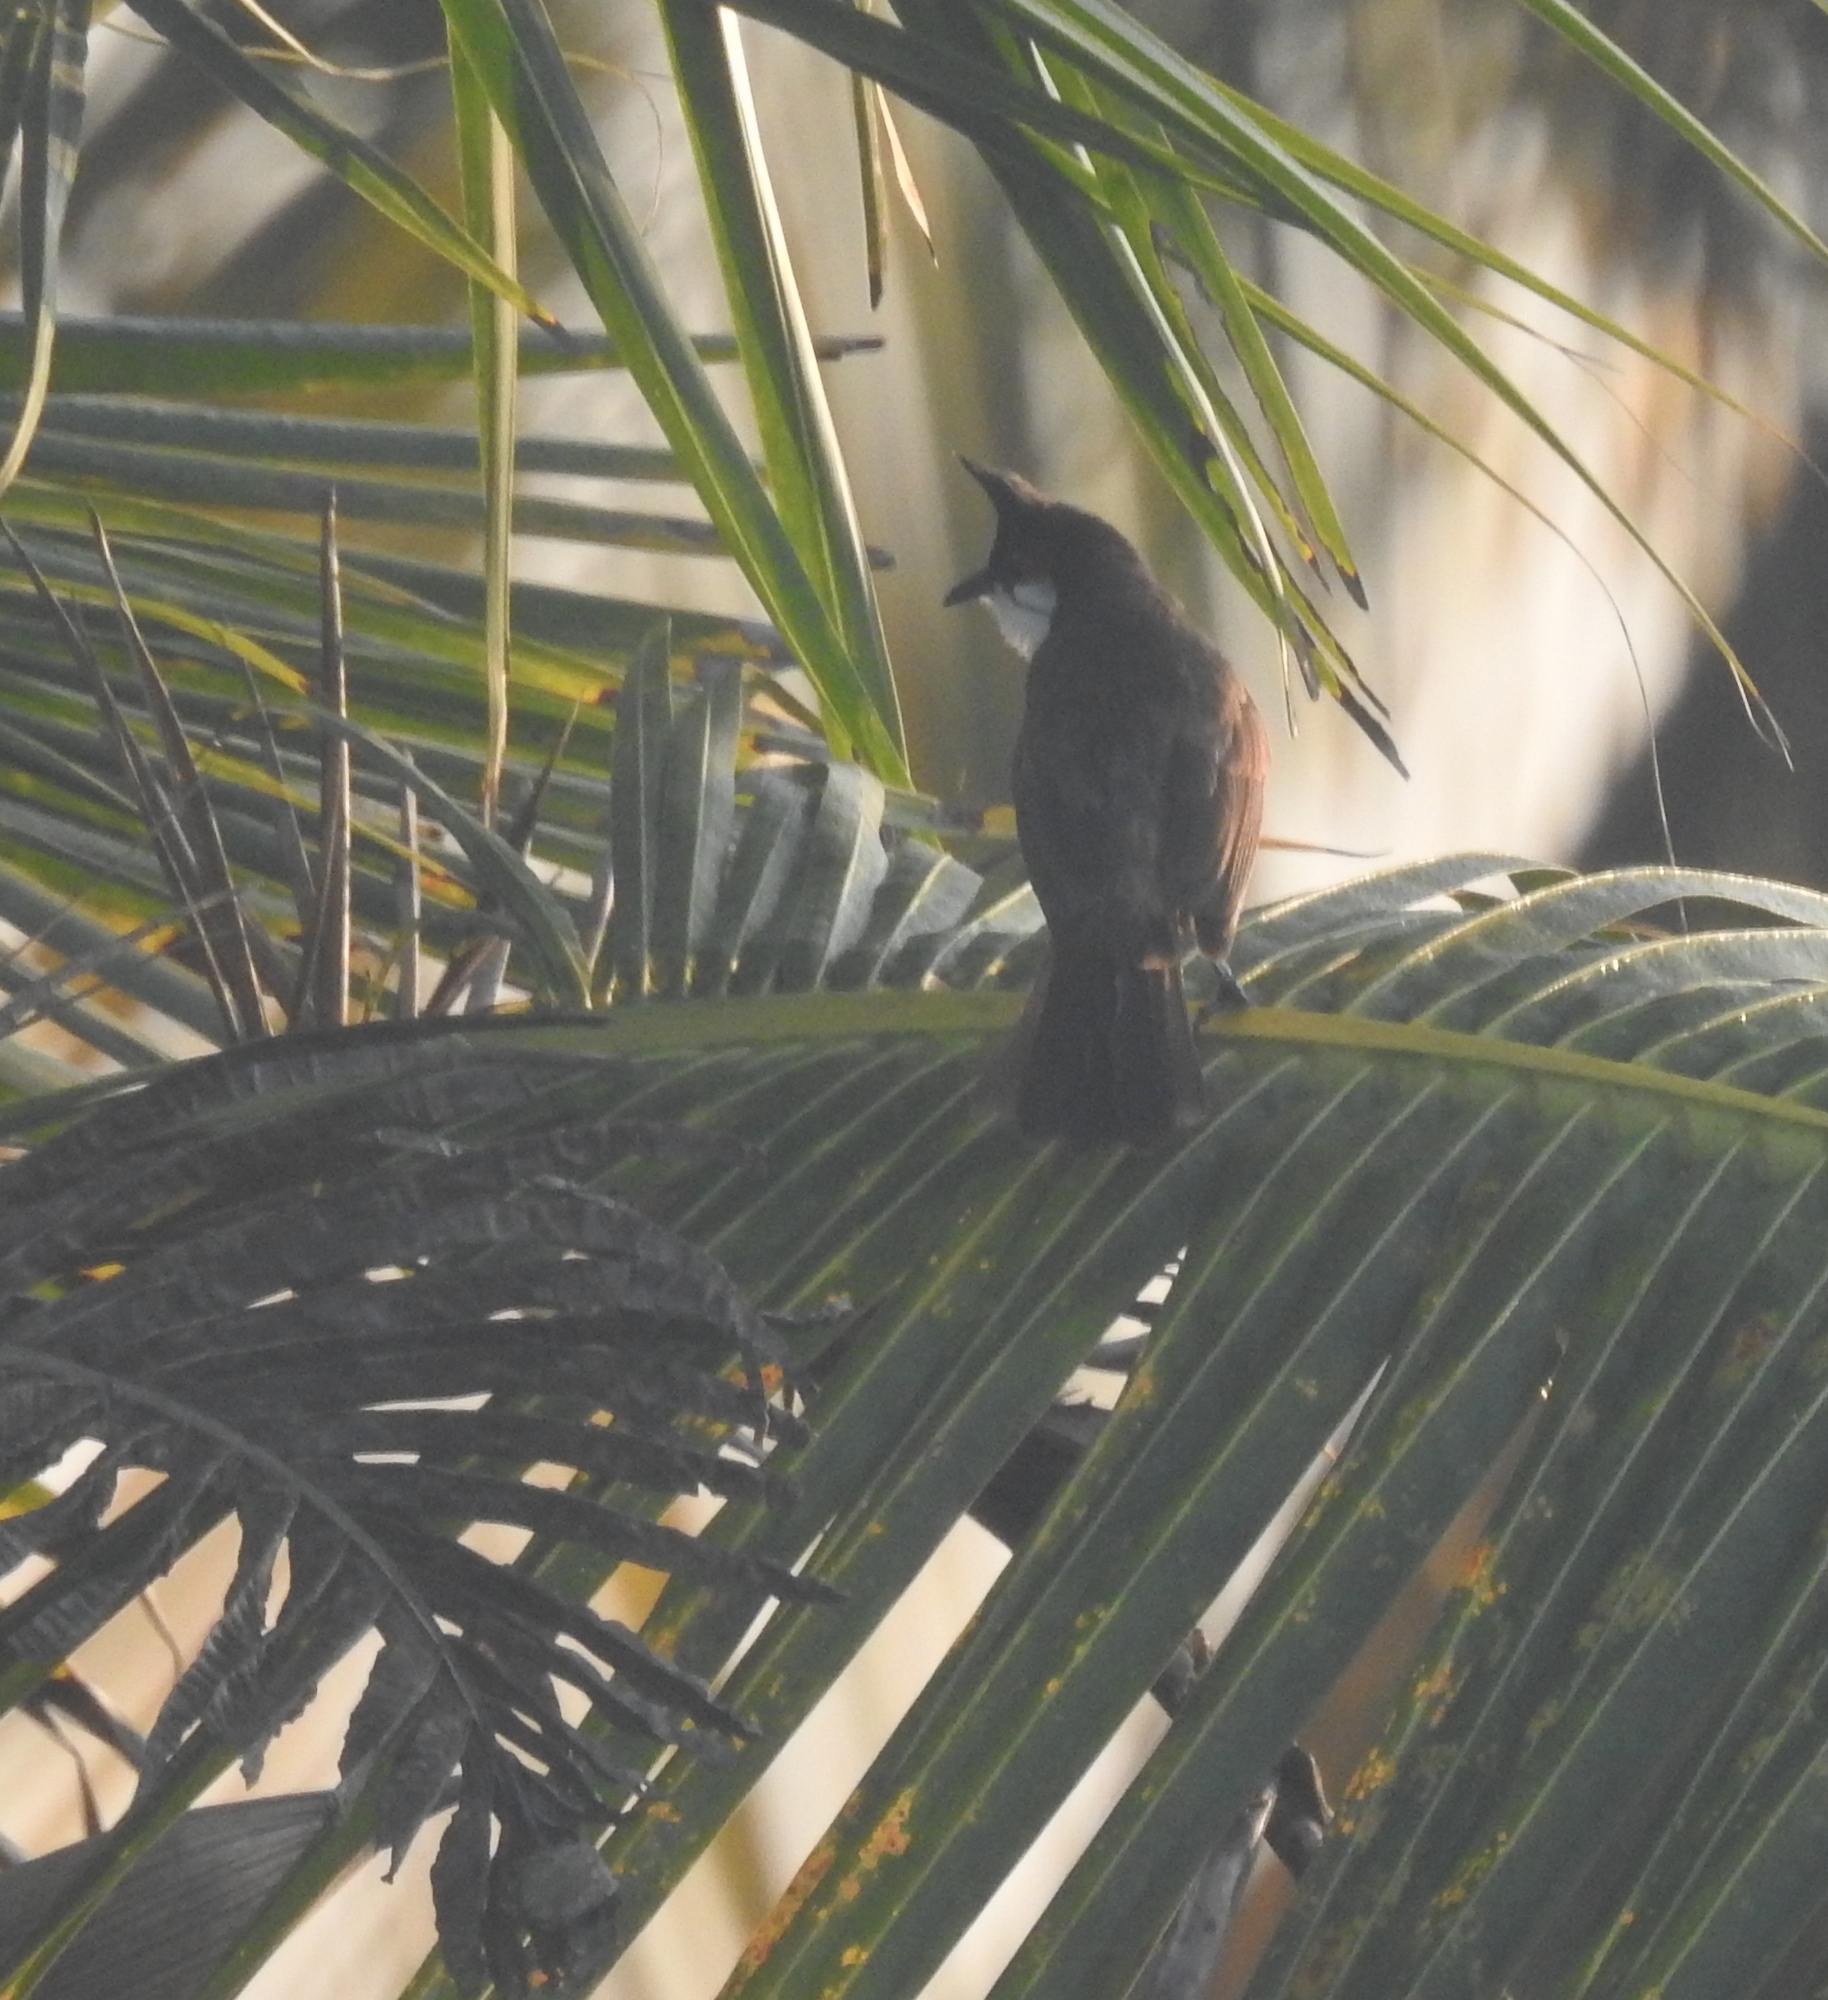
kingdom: Animalia
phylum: Chordata
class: Aves
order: Passeriformes
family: Pycnonotidae
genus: Pycnonotus
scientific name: Pycnonotus jocosus
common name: Red-whiskered bulbul
